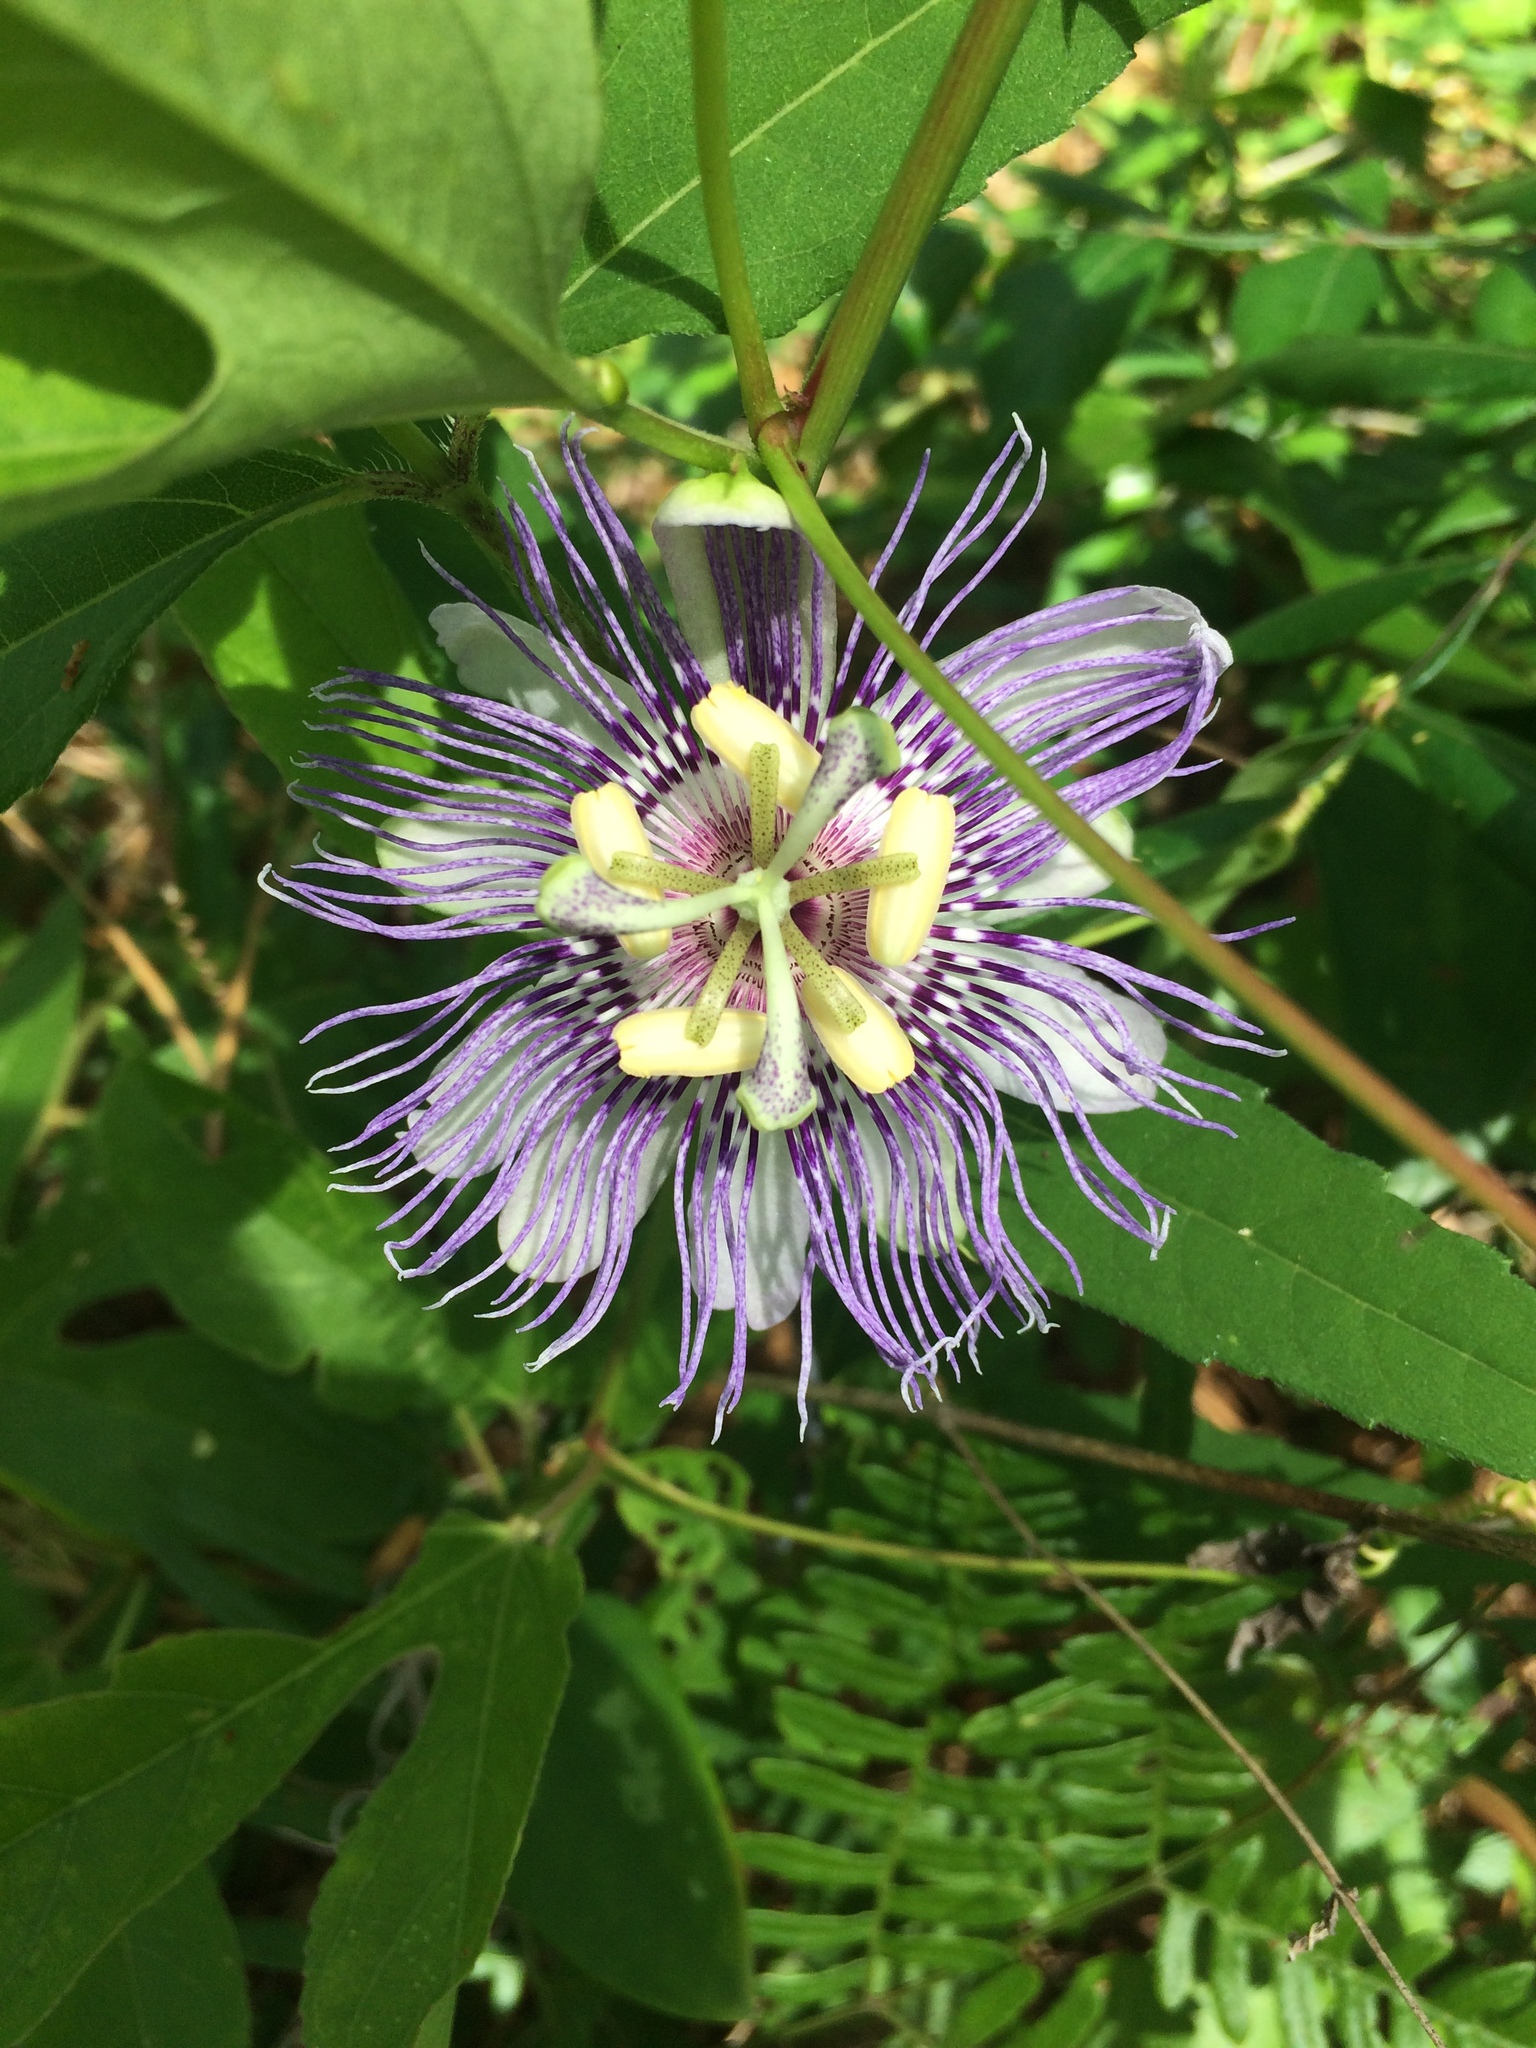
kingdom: Plantae
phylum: Tracheophyta
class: Magnoliopsida
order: Malpighiales
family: Passifloraceae
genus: Passiflora
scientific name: Passiflora incarnata
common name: Apricot-vine
